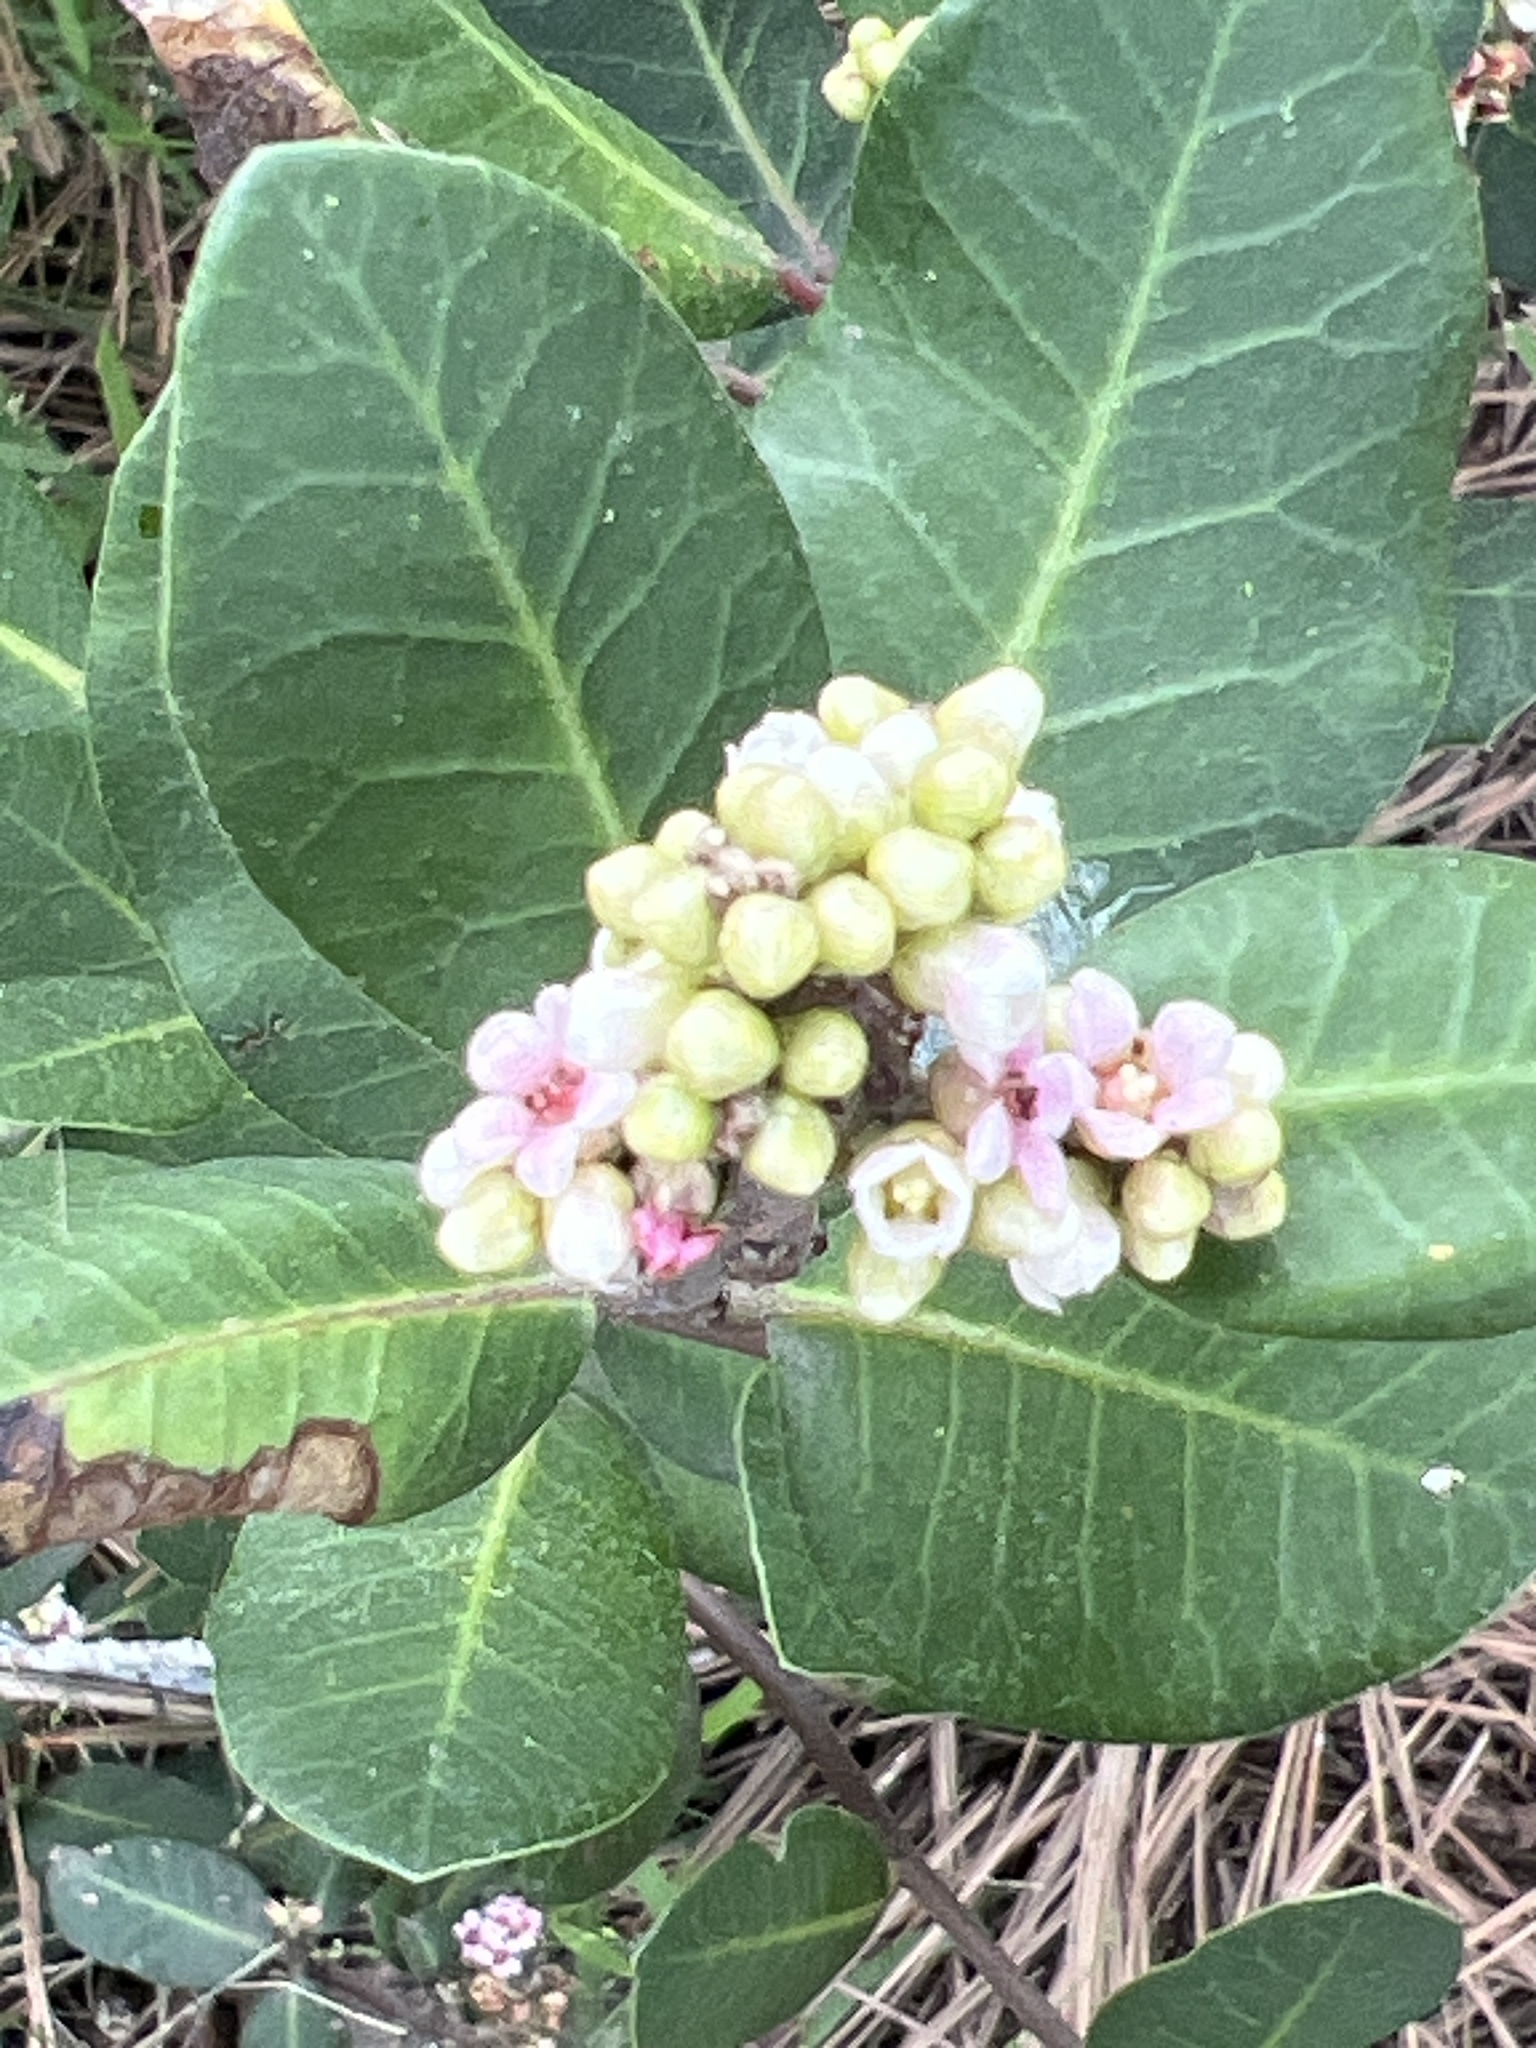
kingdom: Plantae
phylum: Tracheophyta
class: Magnoliopsida
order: Sapindales
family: Anacardiaceae
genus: Rhus
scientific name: Rhus integrifolia
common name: Lemonade sumac
